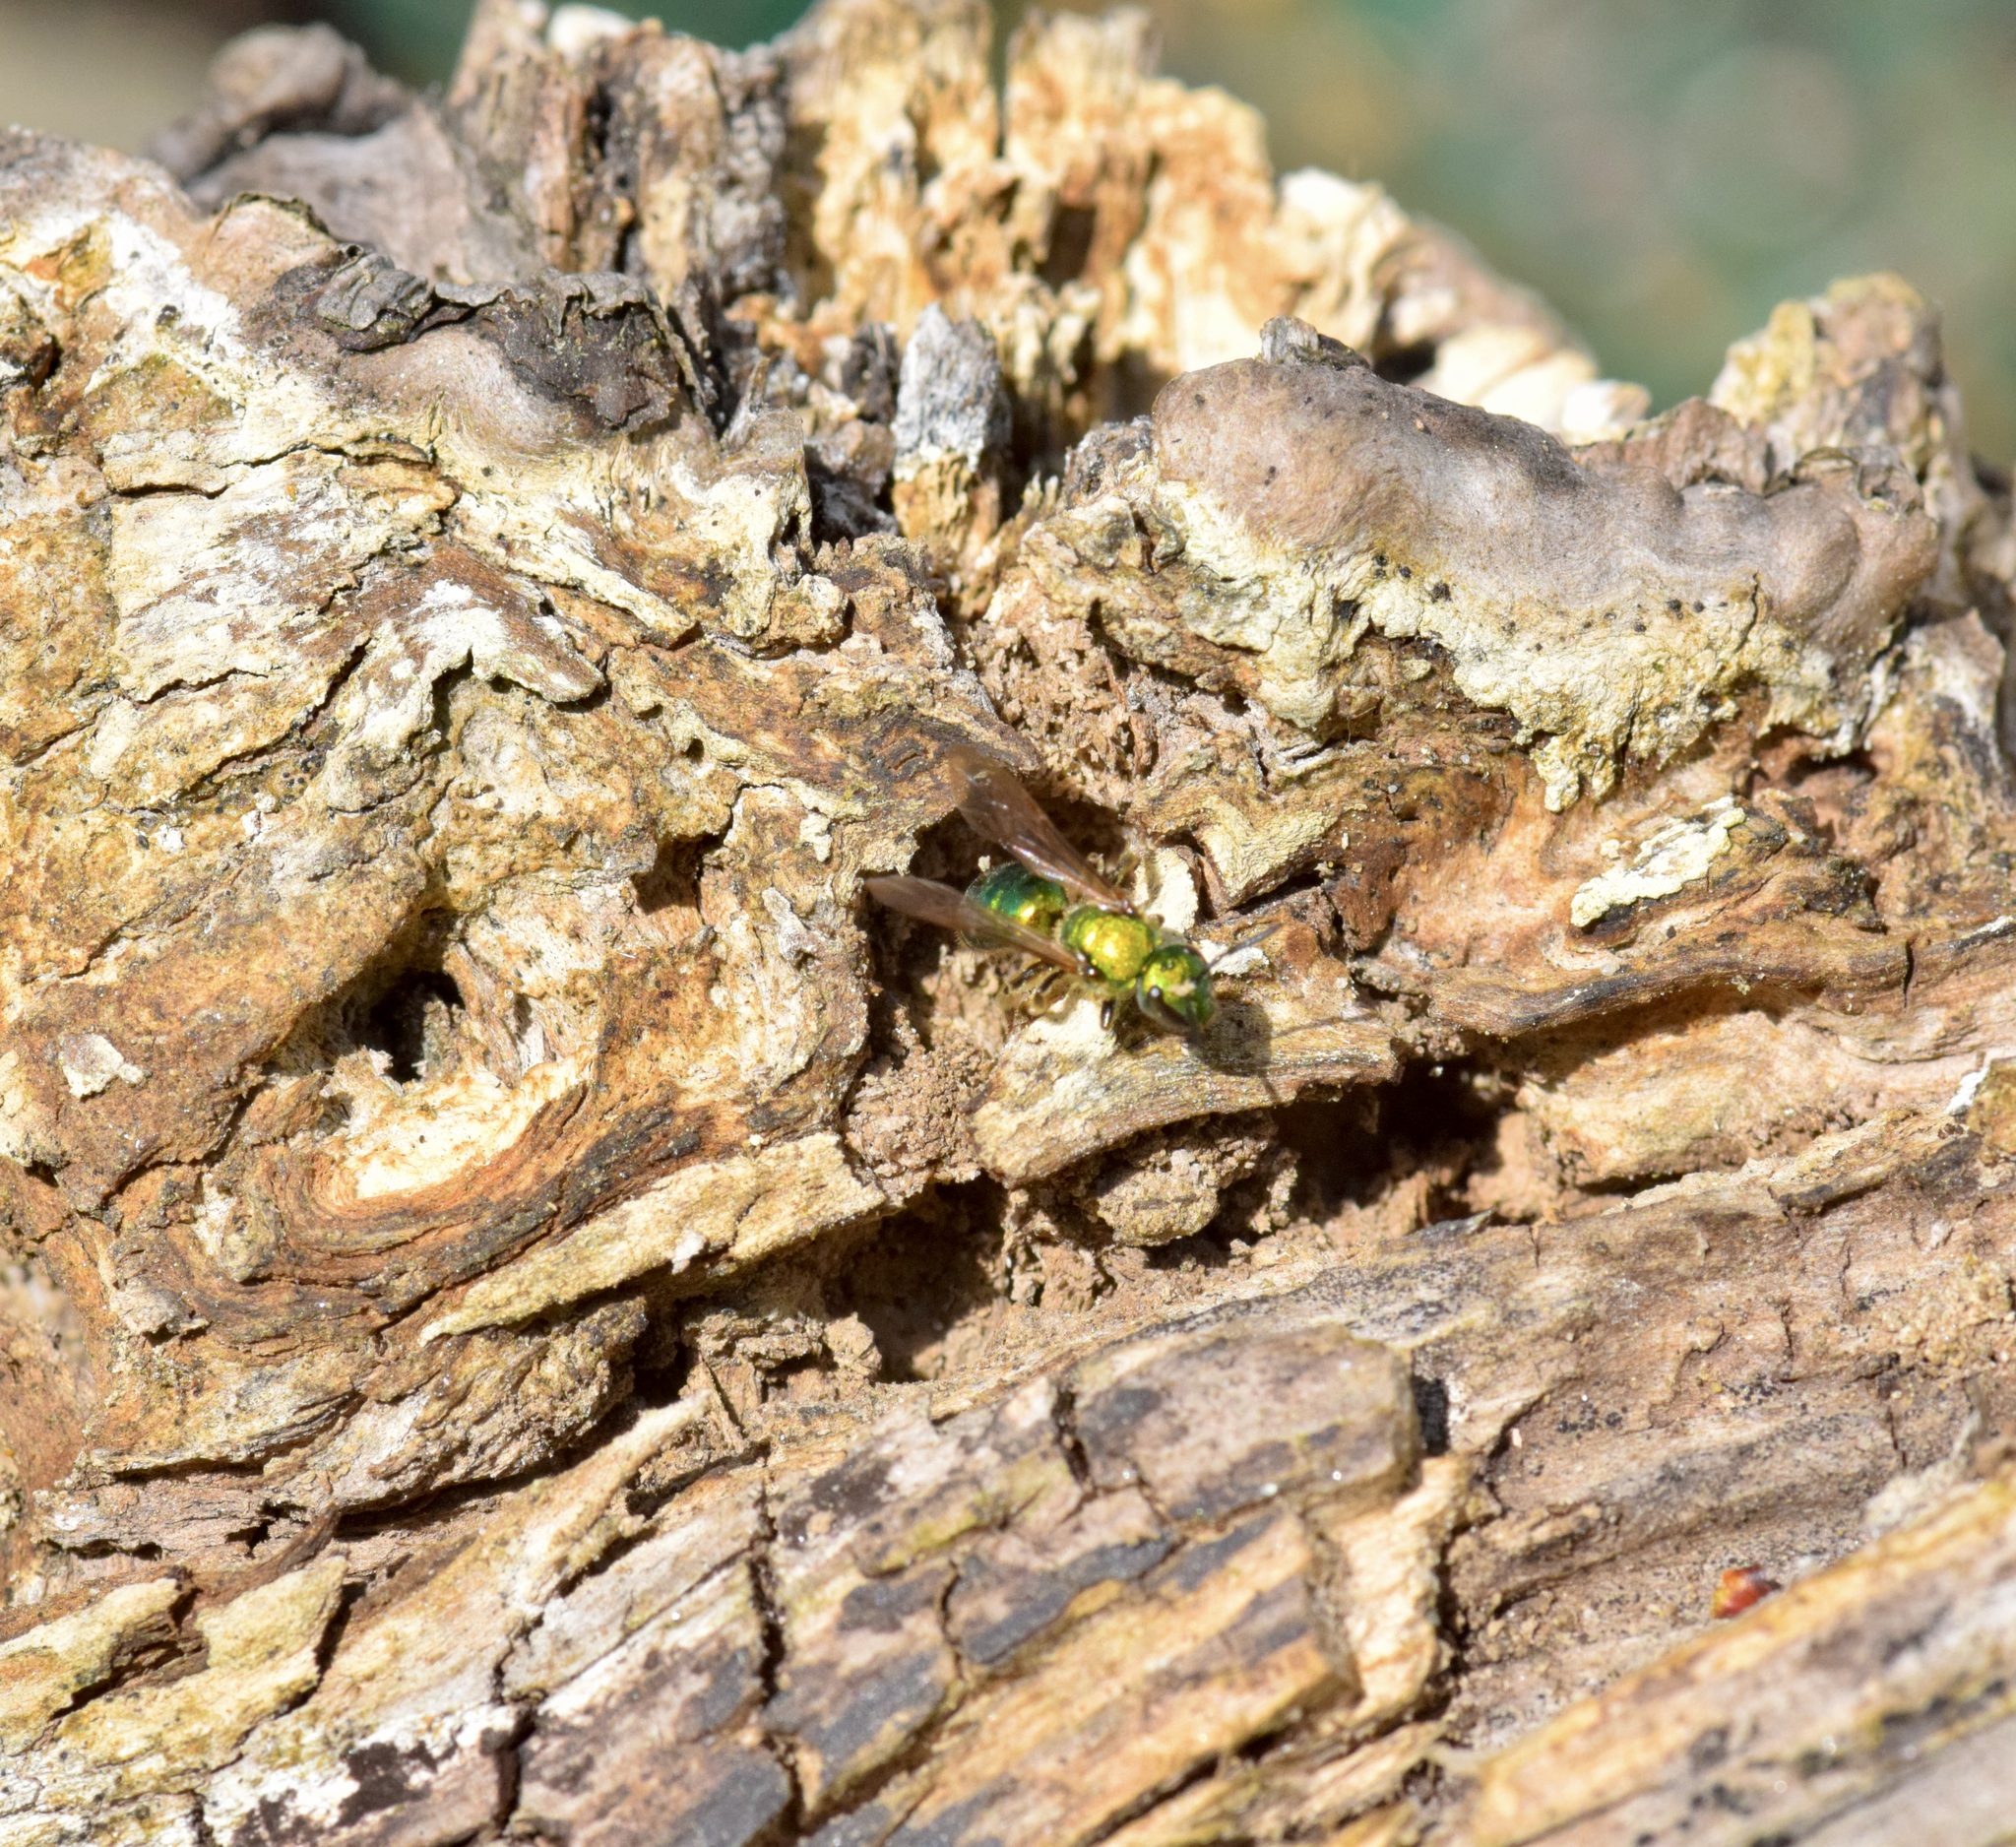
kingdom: Animalia
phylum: Arthropoda
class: Insecta
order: Hymenoptera
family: Halictidae
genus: Augochlora
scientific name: Augochlora pura
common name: Pure green sweat bee
